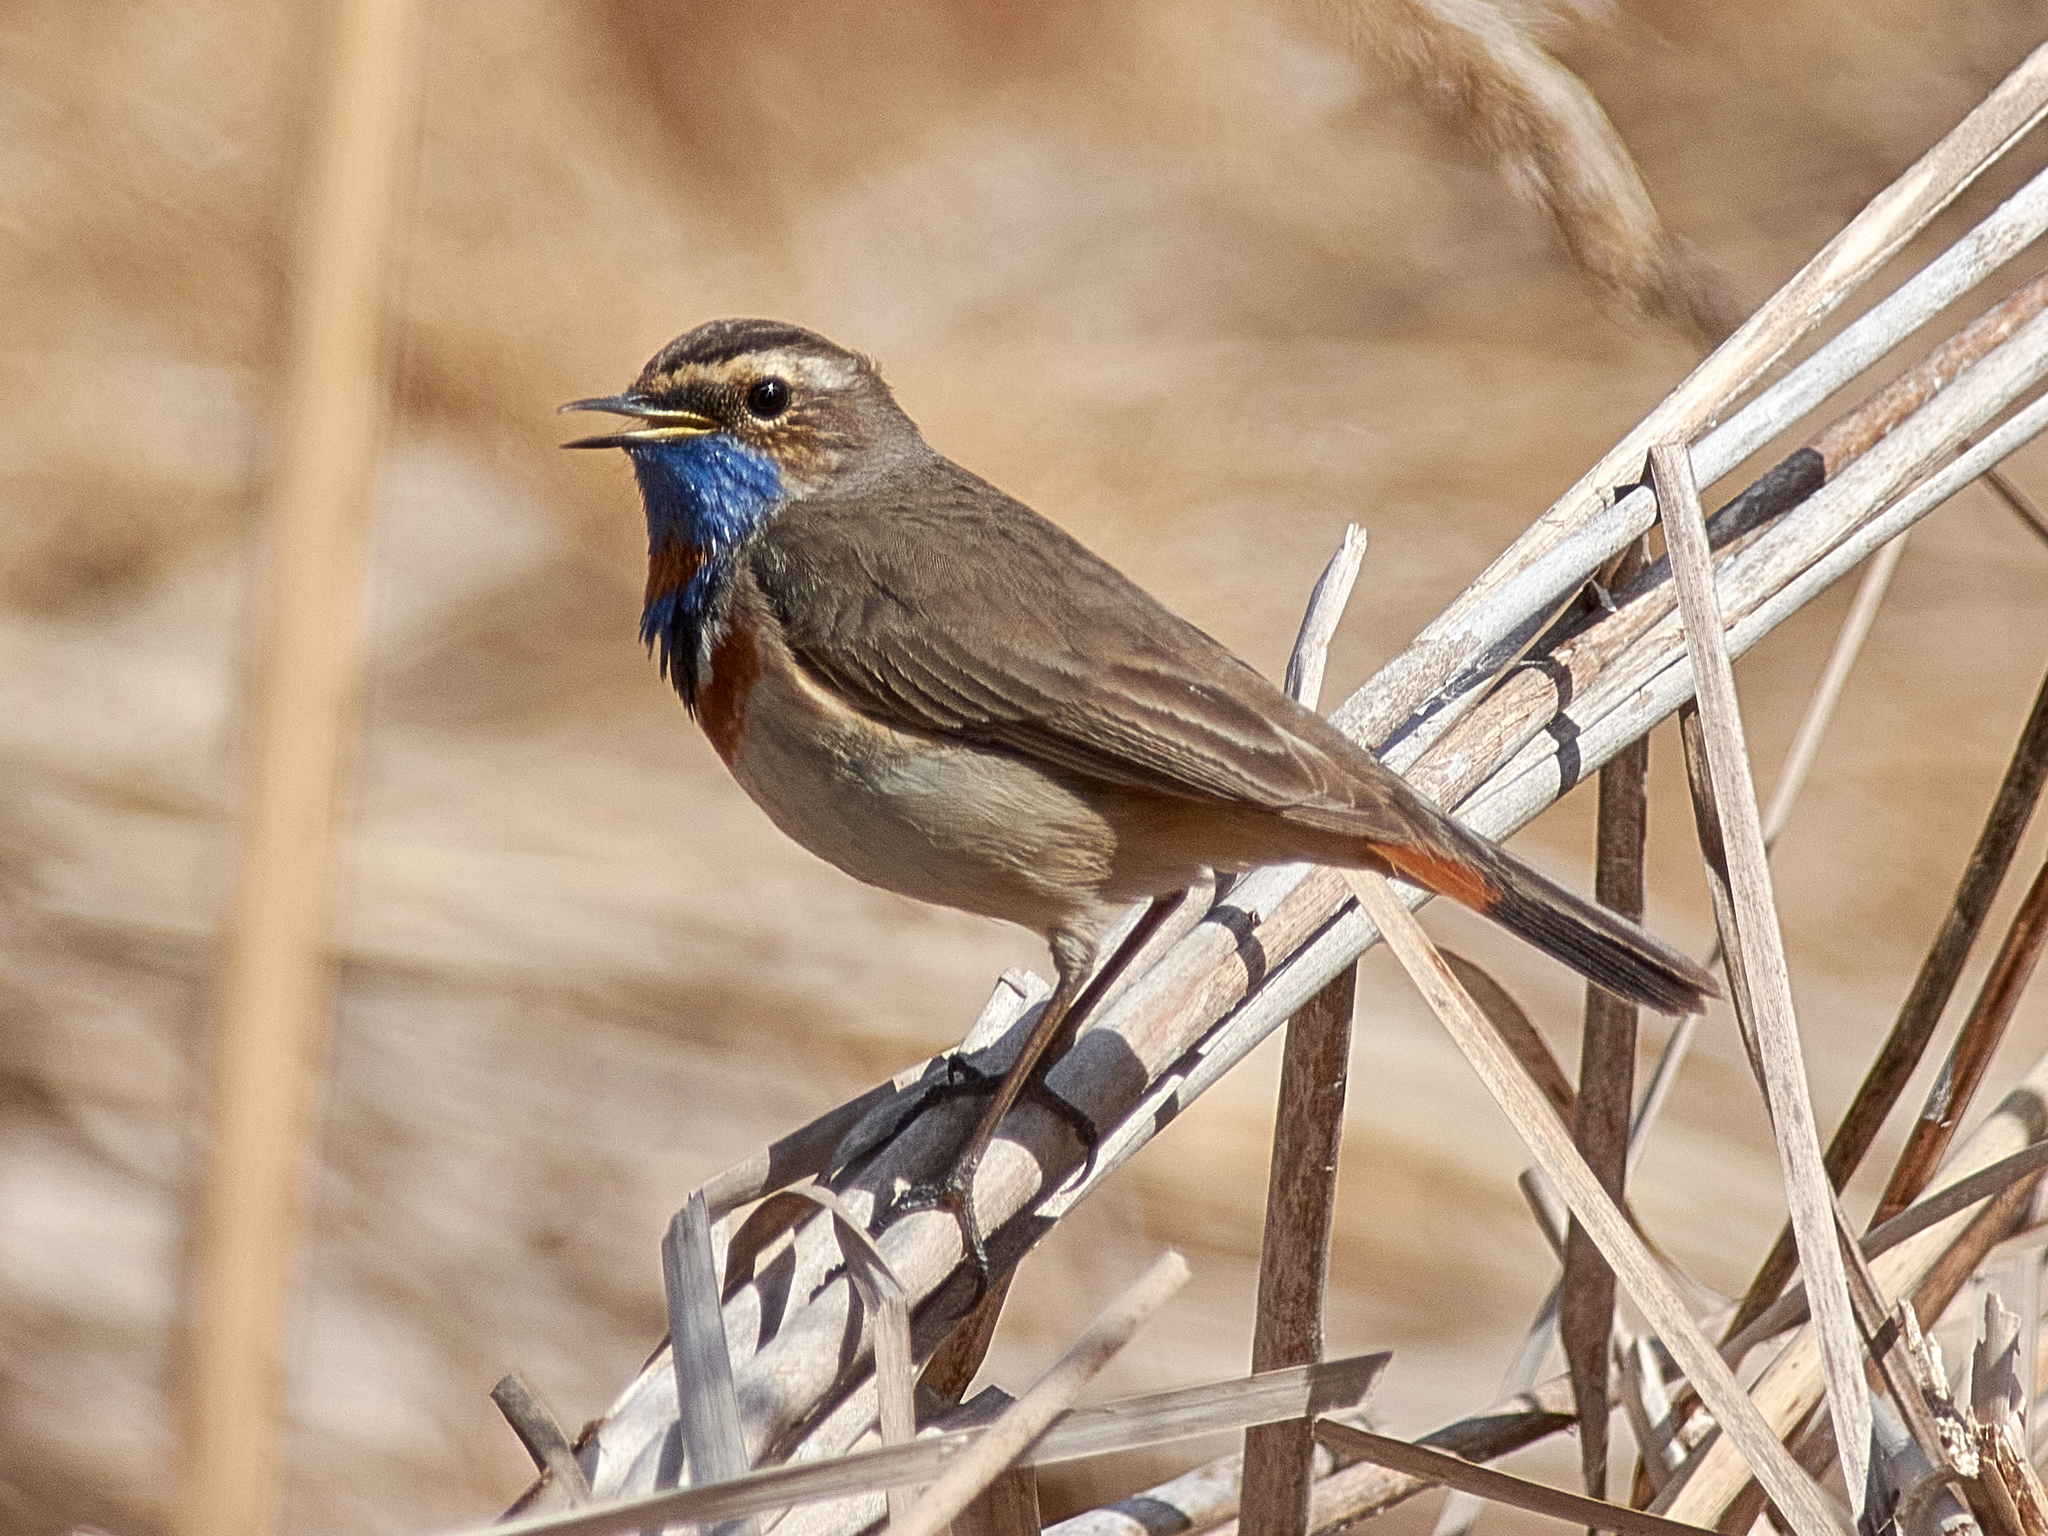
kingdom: Animalia
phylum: Chordata
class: Aves
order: Passeriformes
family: Muscicapidae
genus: Luscinia
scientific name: Luscinia svecica
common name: Bluethroat
